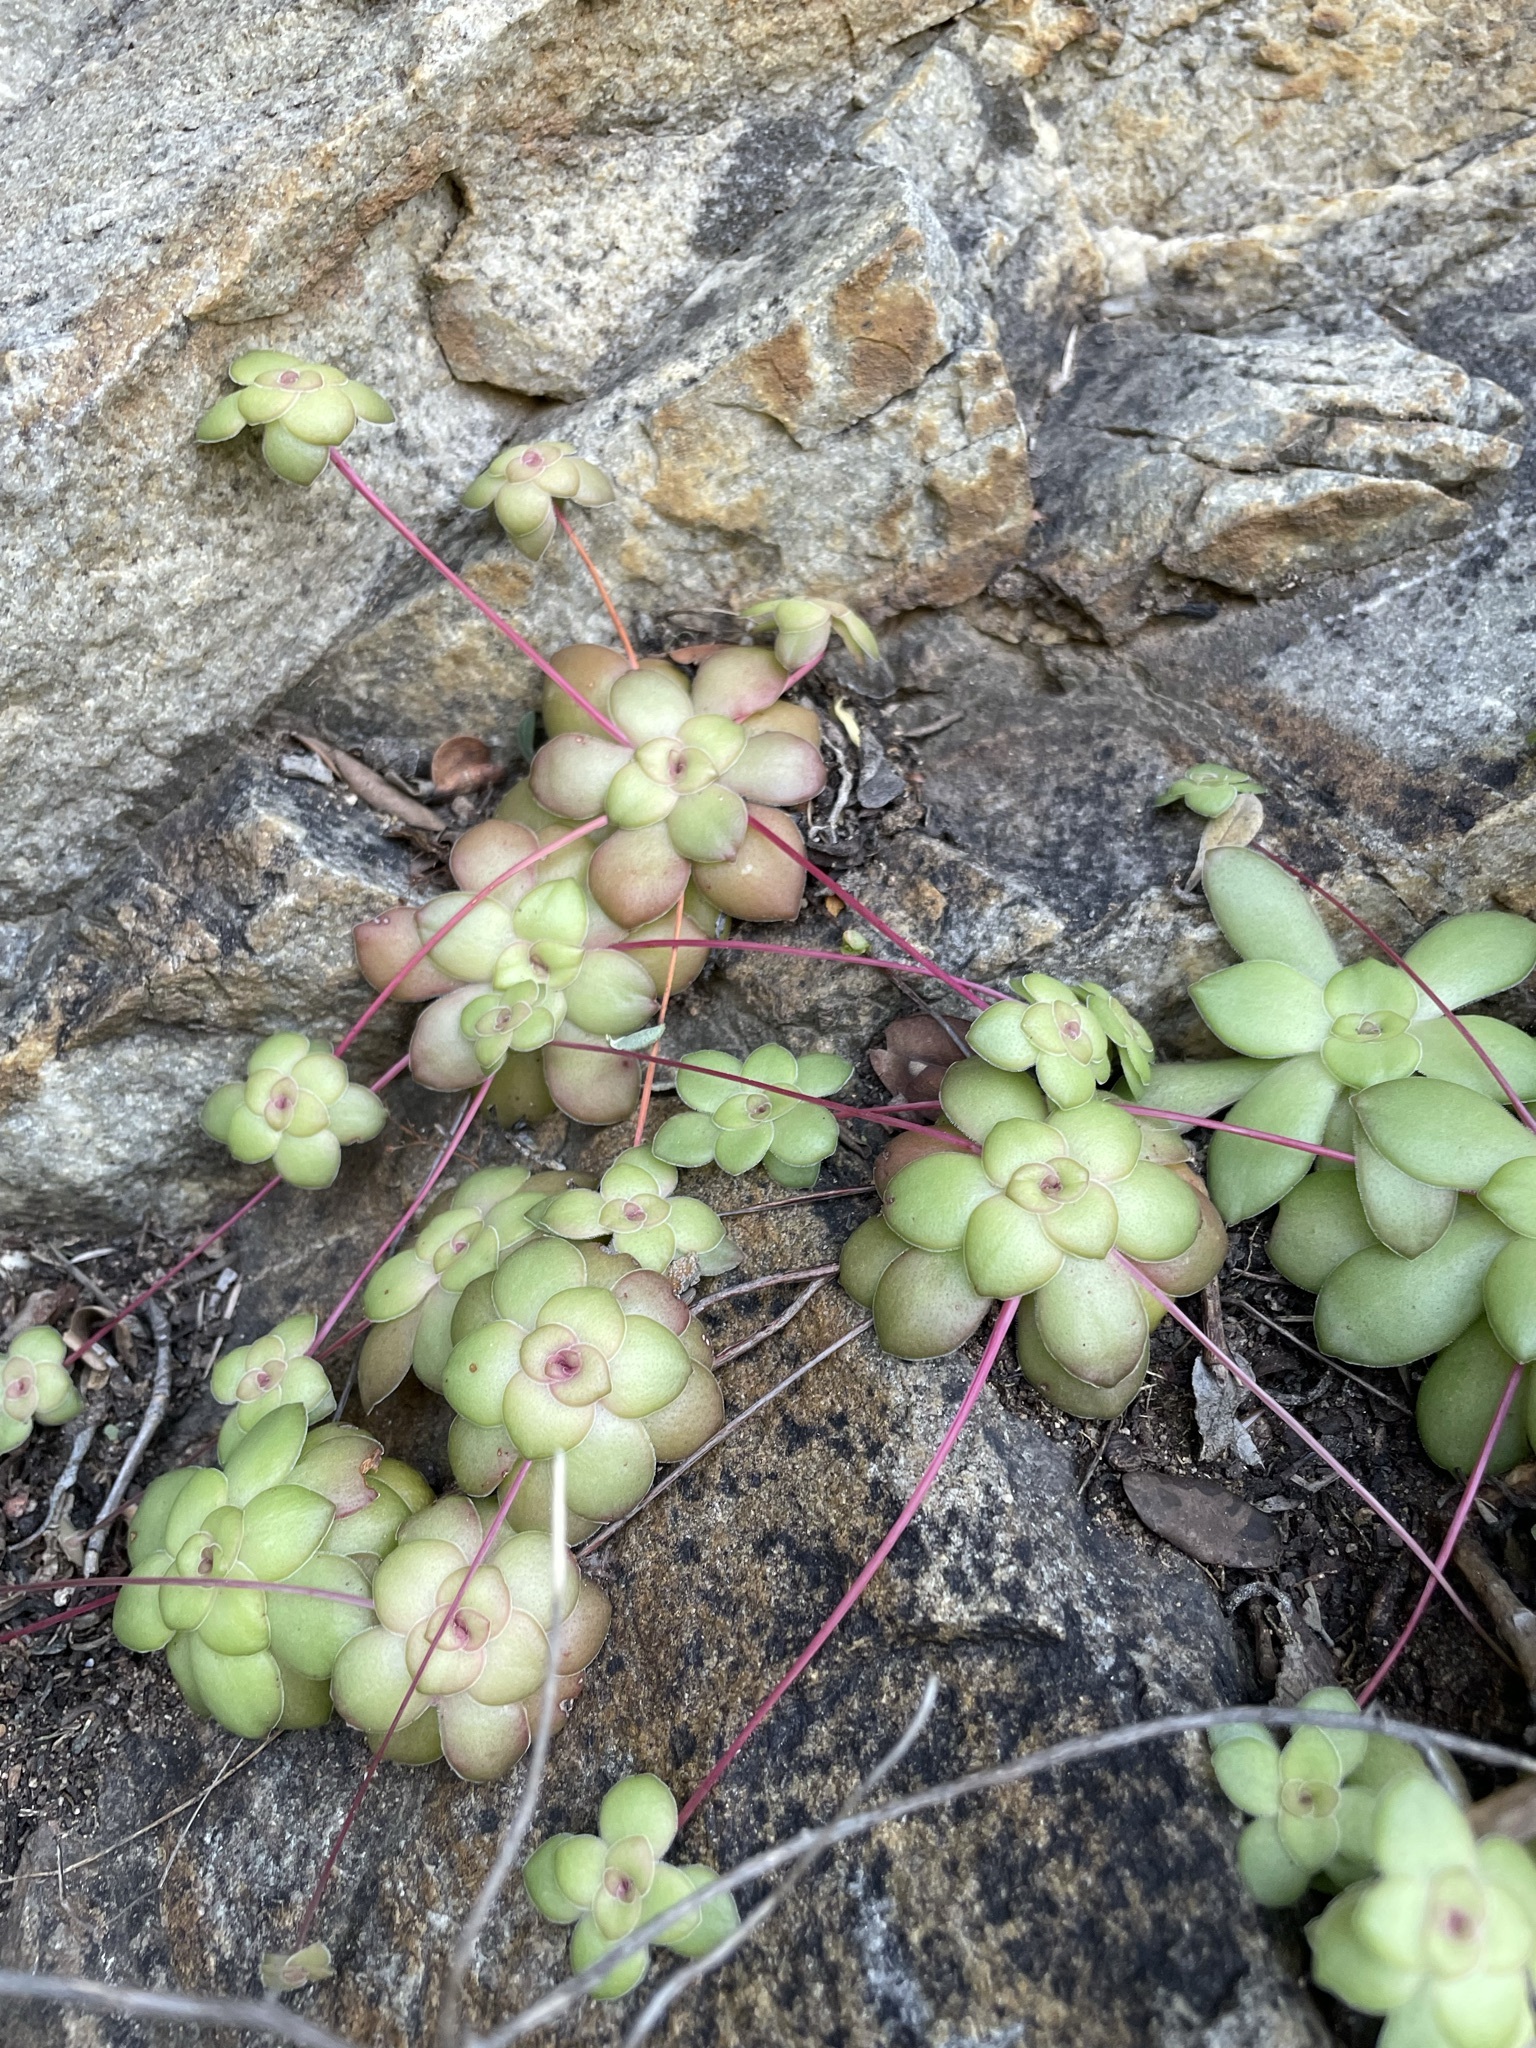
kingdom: Plantae
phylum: Tracheophyta
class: Magnoliopsida
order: Saxifragales
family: Crassulaceae
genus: Crassula
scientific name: Crassula orbicularis
